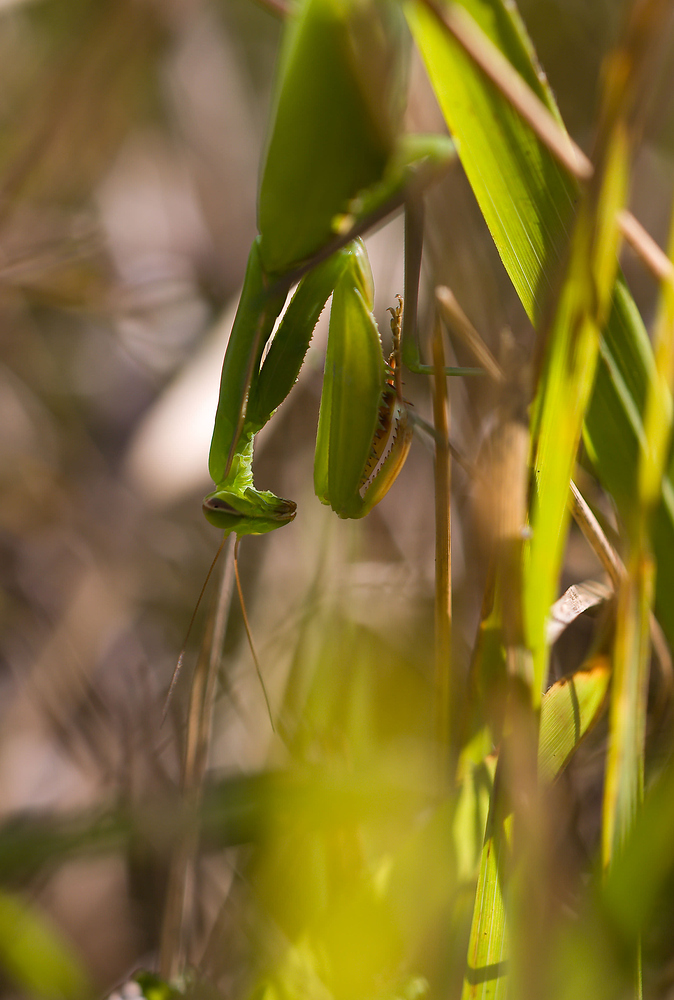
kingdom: Animalia
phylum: Arthropoda
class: Insecta
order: Mantodea
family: Mantidae
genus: Mantis
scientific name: Mantis religiosa
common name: Praying mantis
